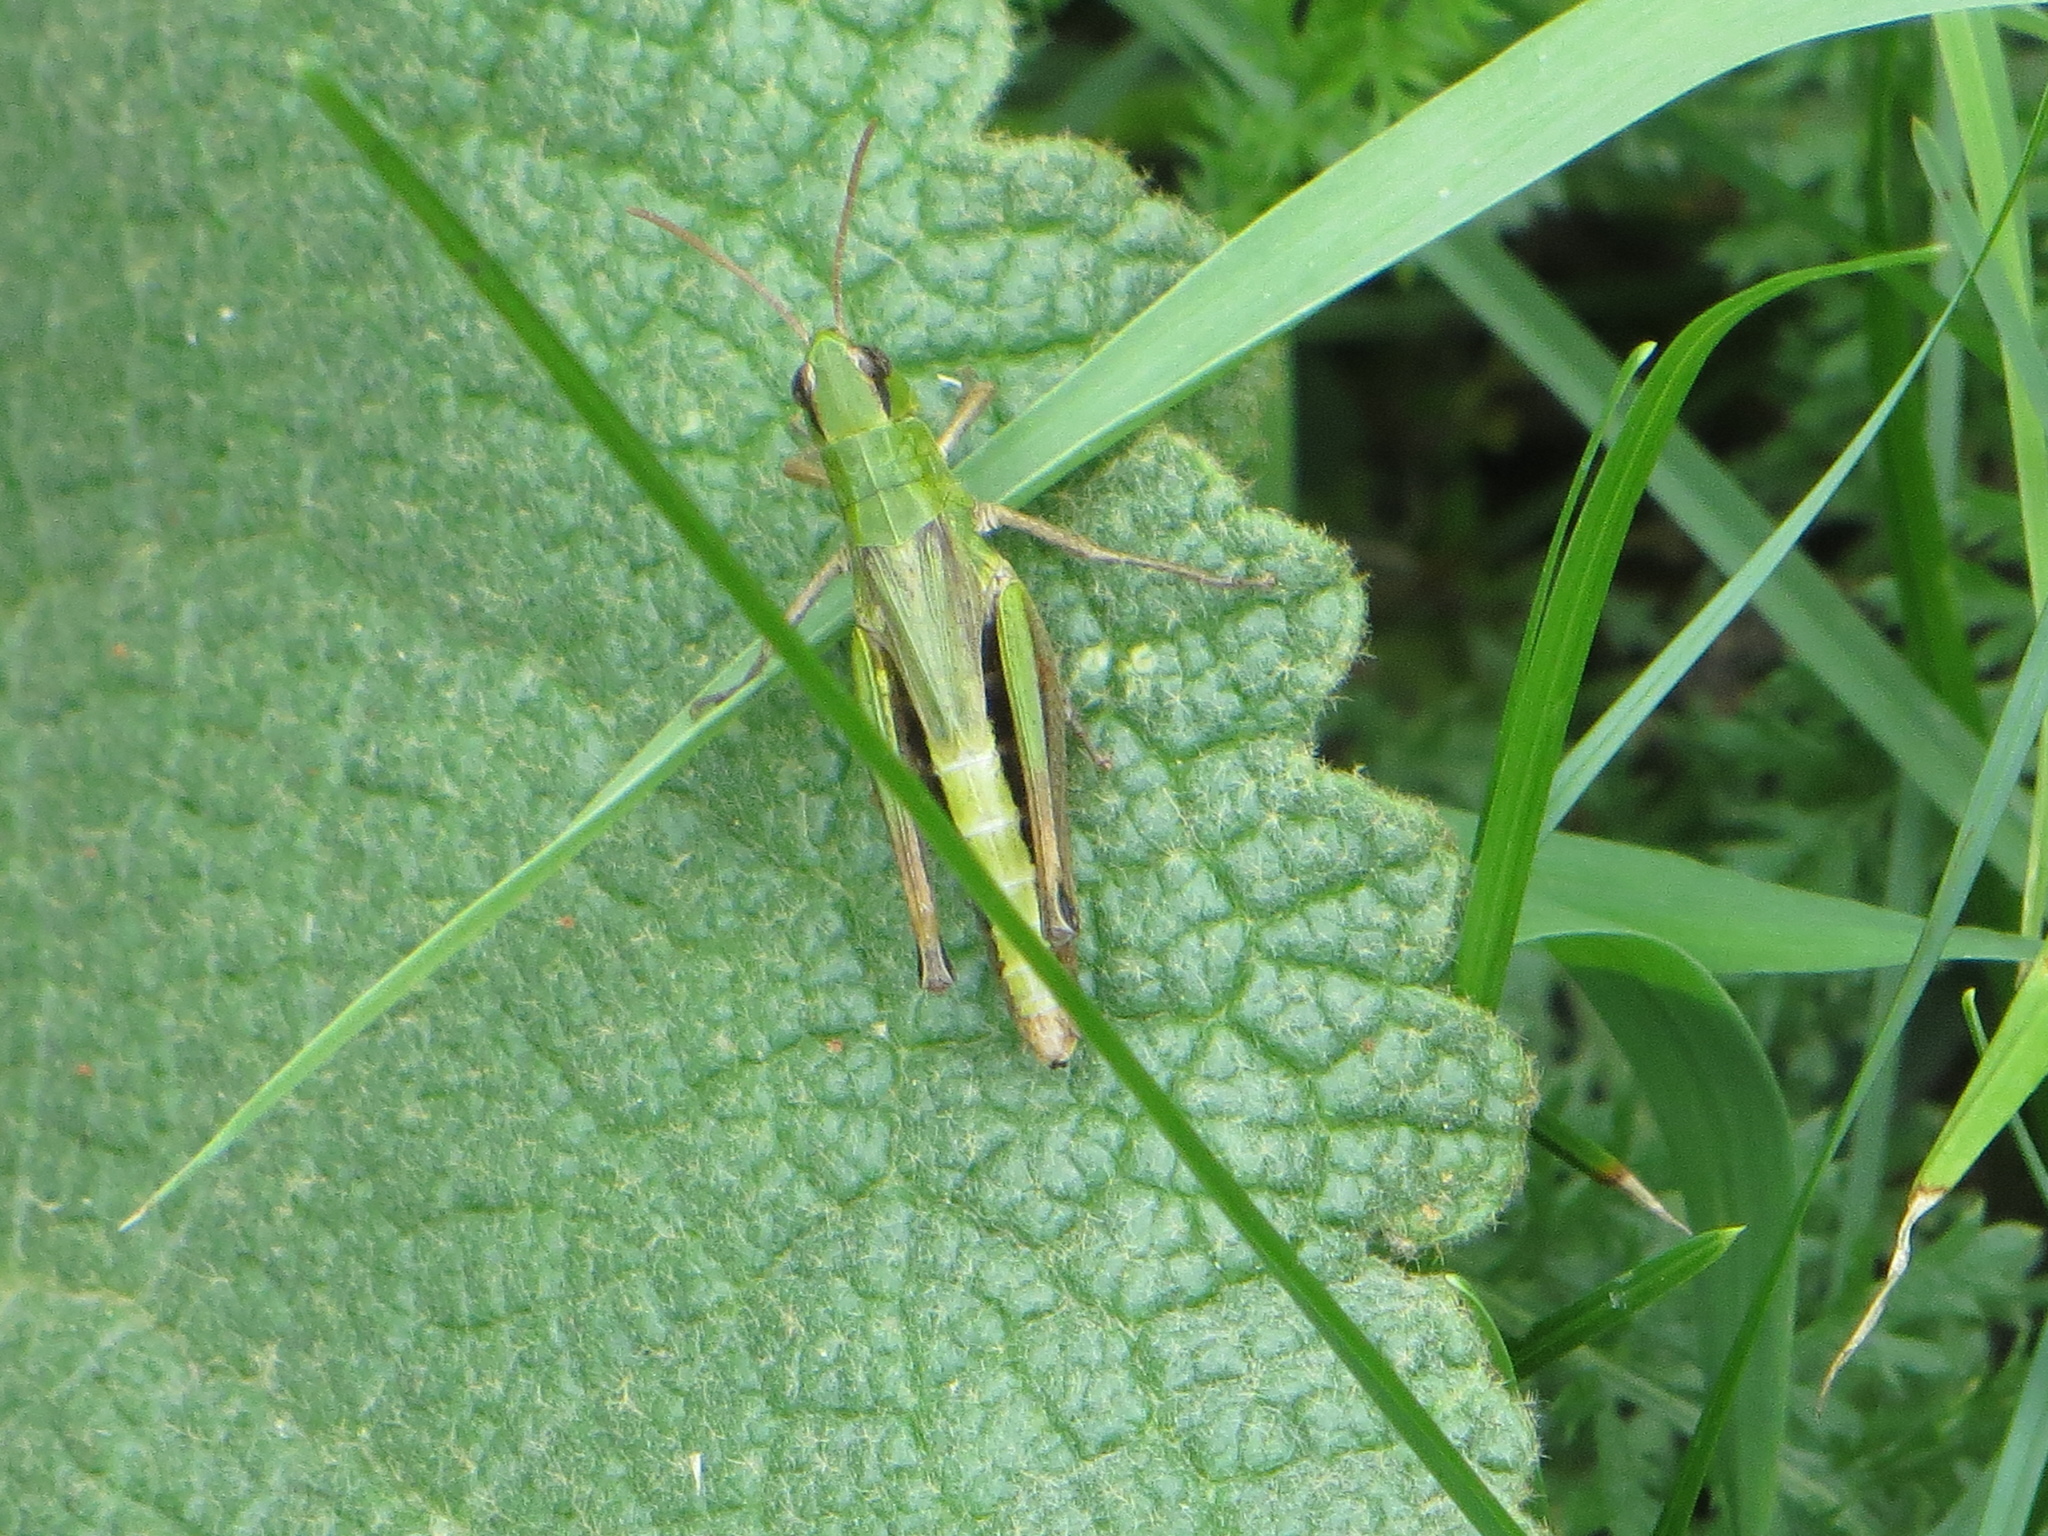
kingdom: Animalia
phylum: Arthropoda
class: Insecta
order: Orthoptera
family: Acrididae
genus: Pseudochorthippus
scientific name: Pseudochorthippus parallelus
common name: Meadow grasshopper
